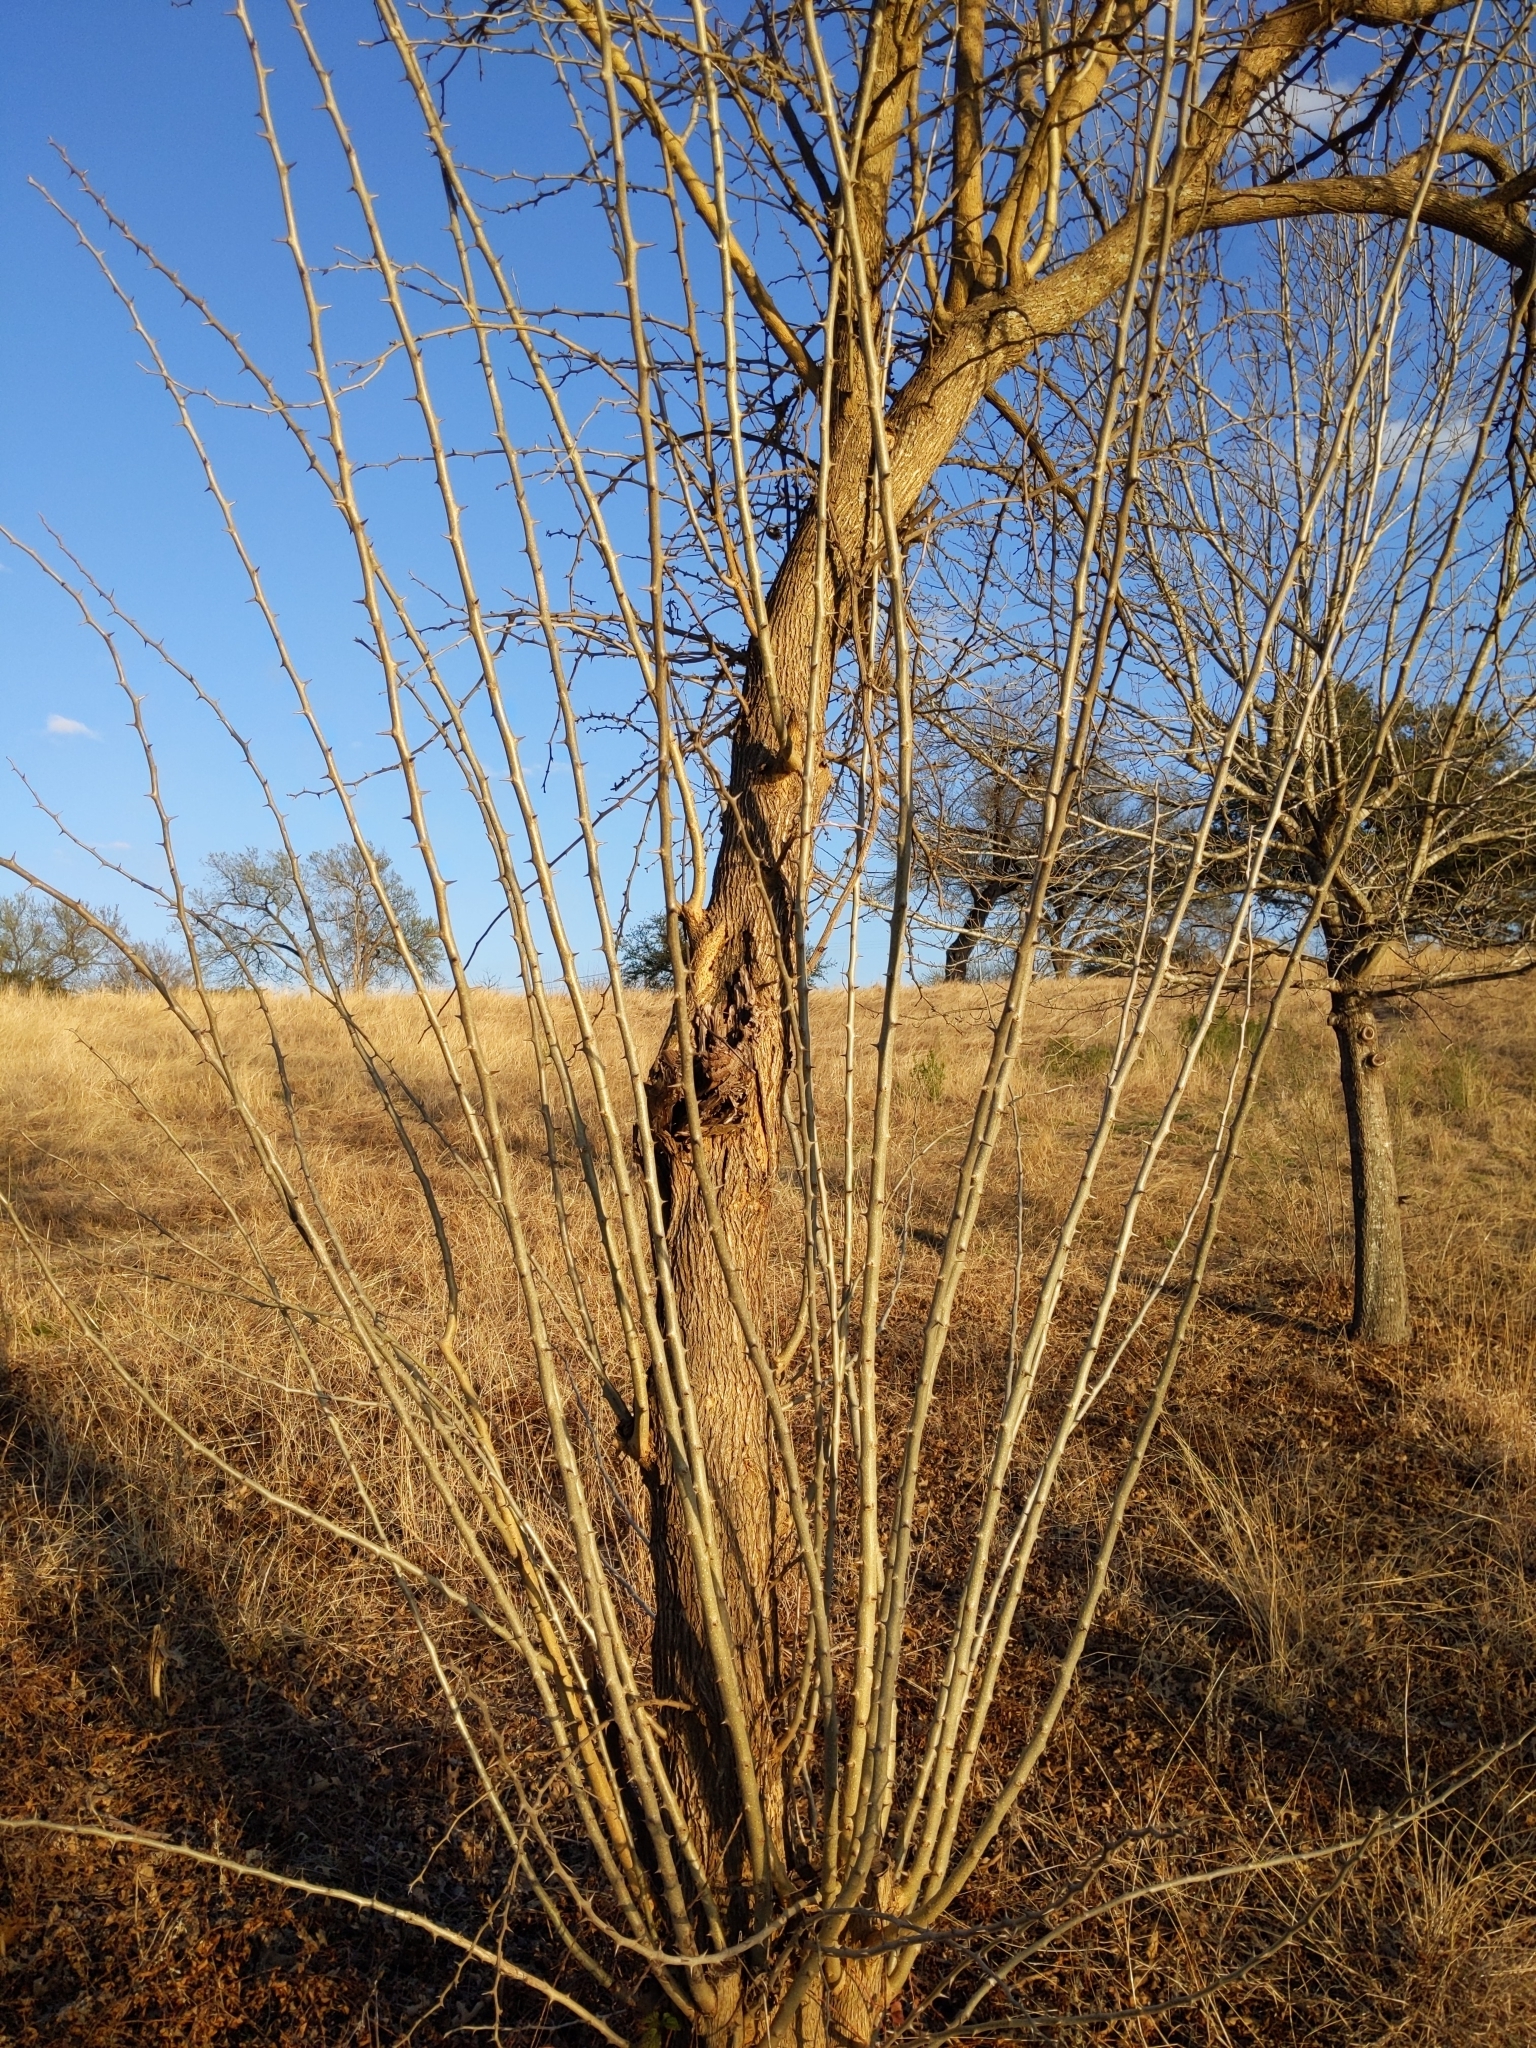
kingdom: Plantae
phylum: Tracheophyta
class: Magnoliopsida
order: Rosales
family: Moraceae
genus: Maclura
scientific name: Maclura pomifera
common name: Osage-orange
